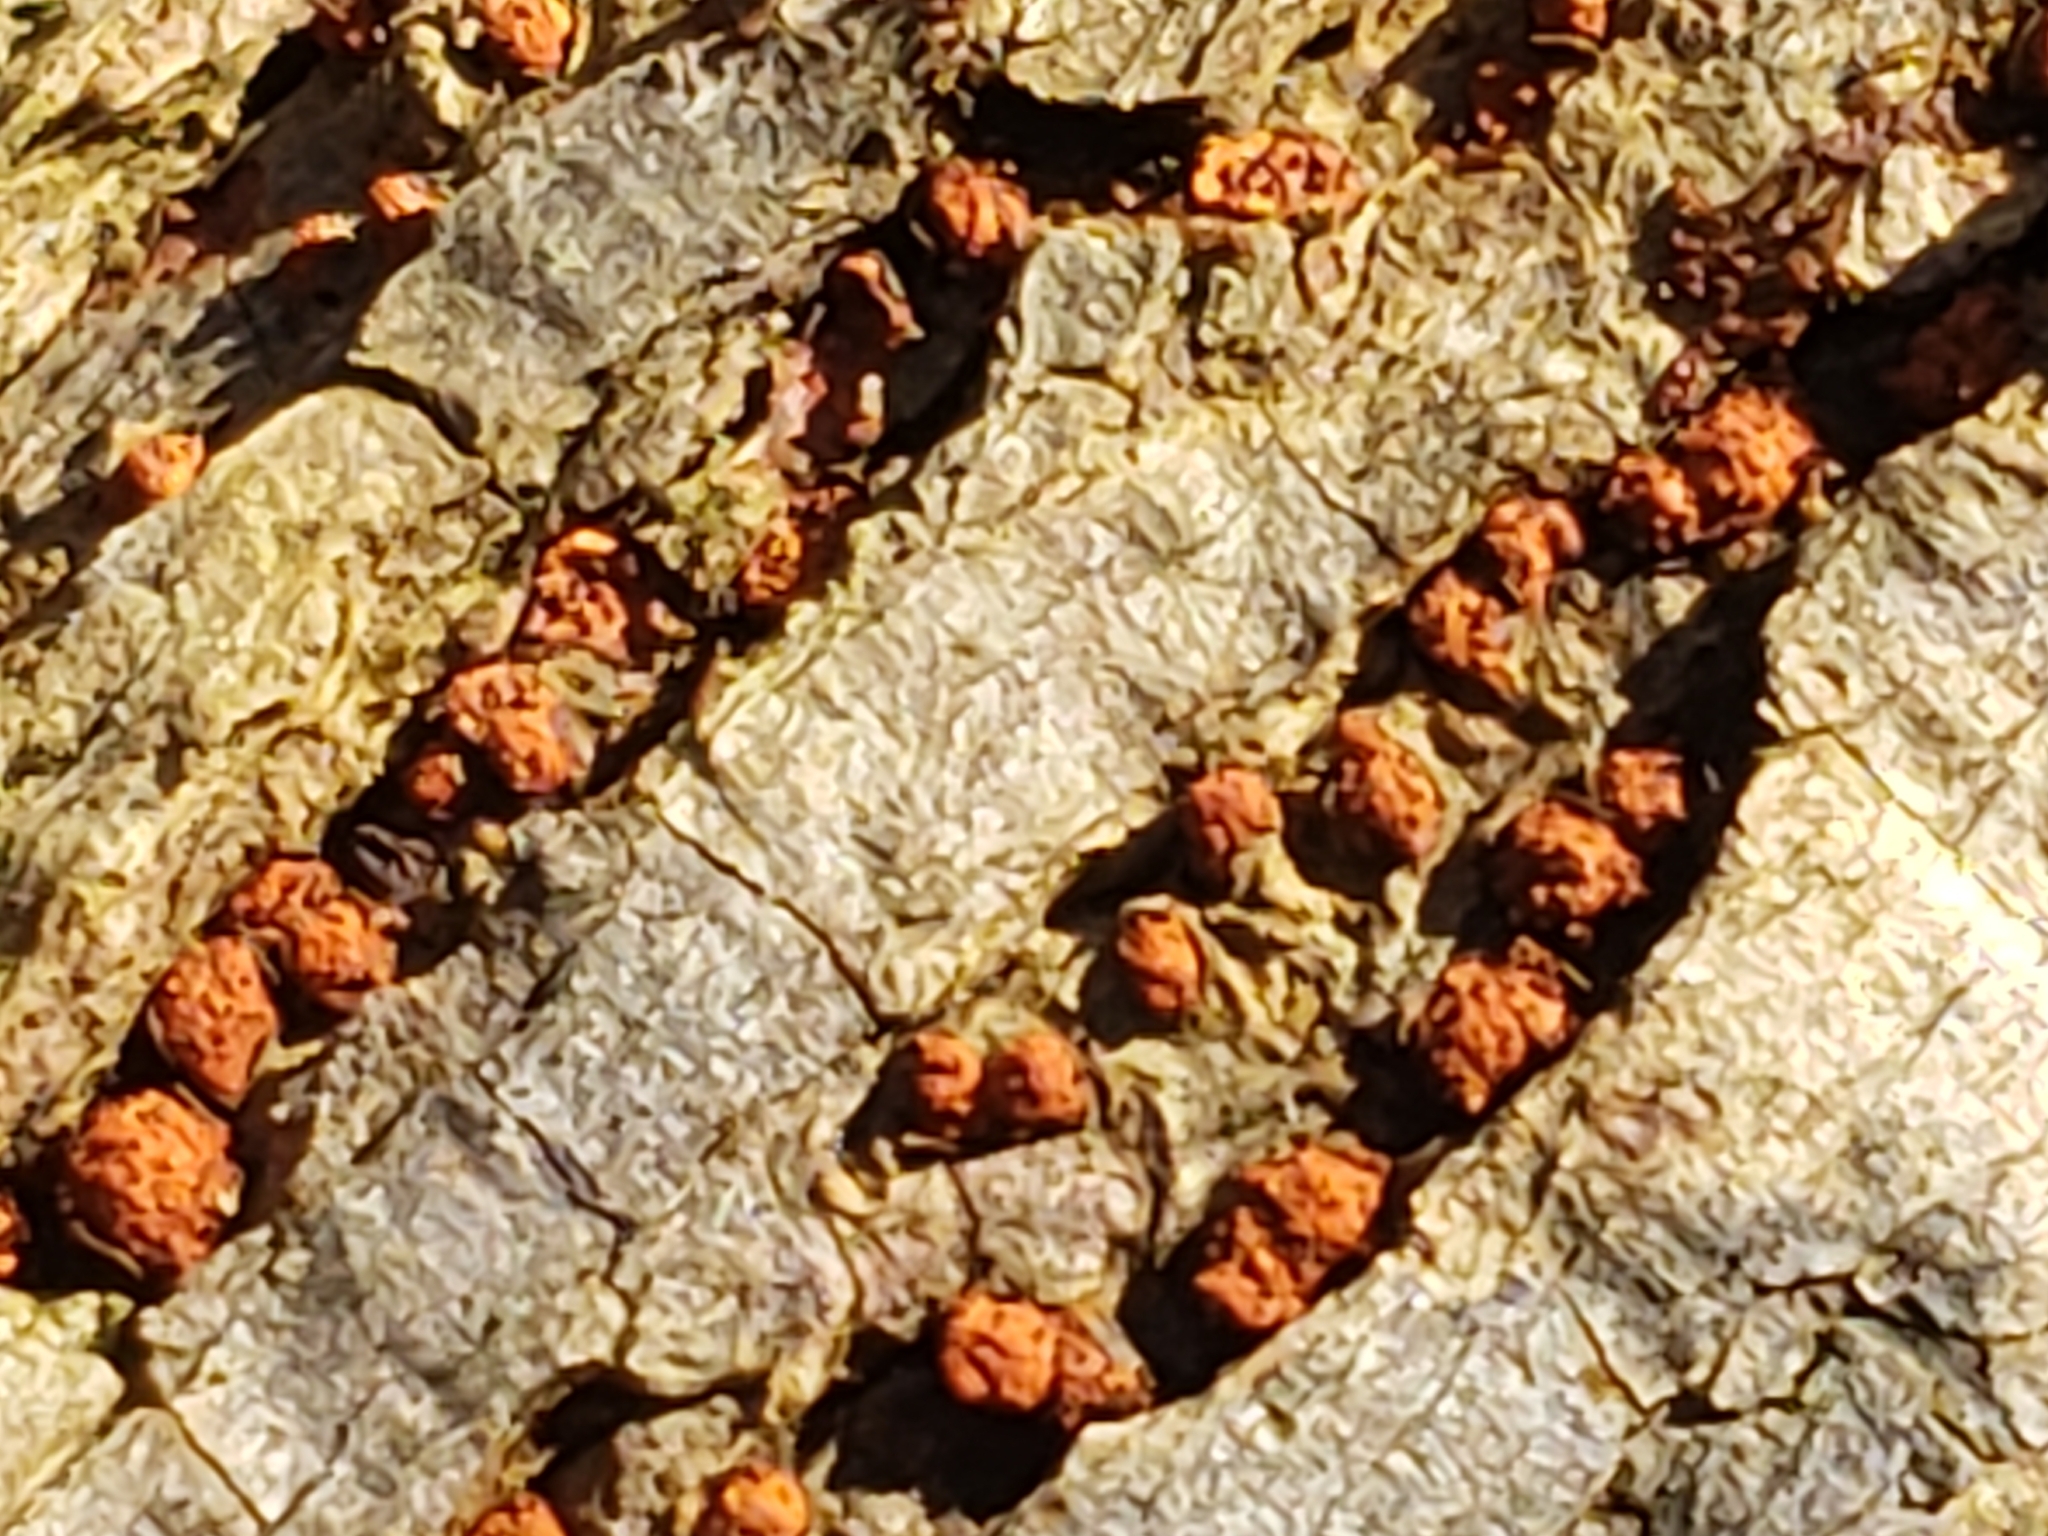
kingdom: Fungi
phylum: Ascomycota
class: Sordariomycetes
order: Diaporthales
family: Cryphonectriaceae
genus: Amphilogia
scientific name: Amphilogia gyrosa
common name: Orange hobnail canker
